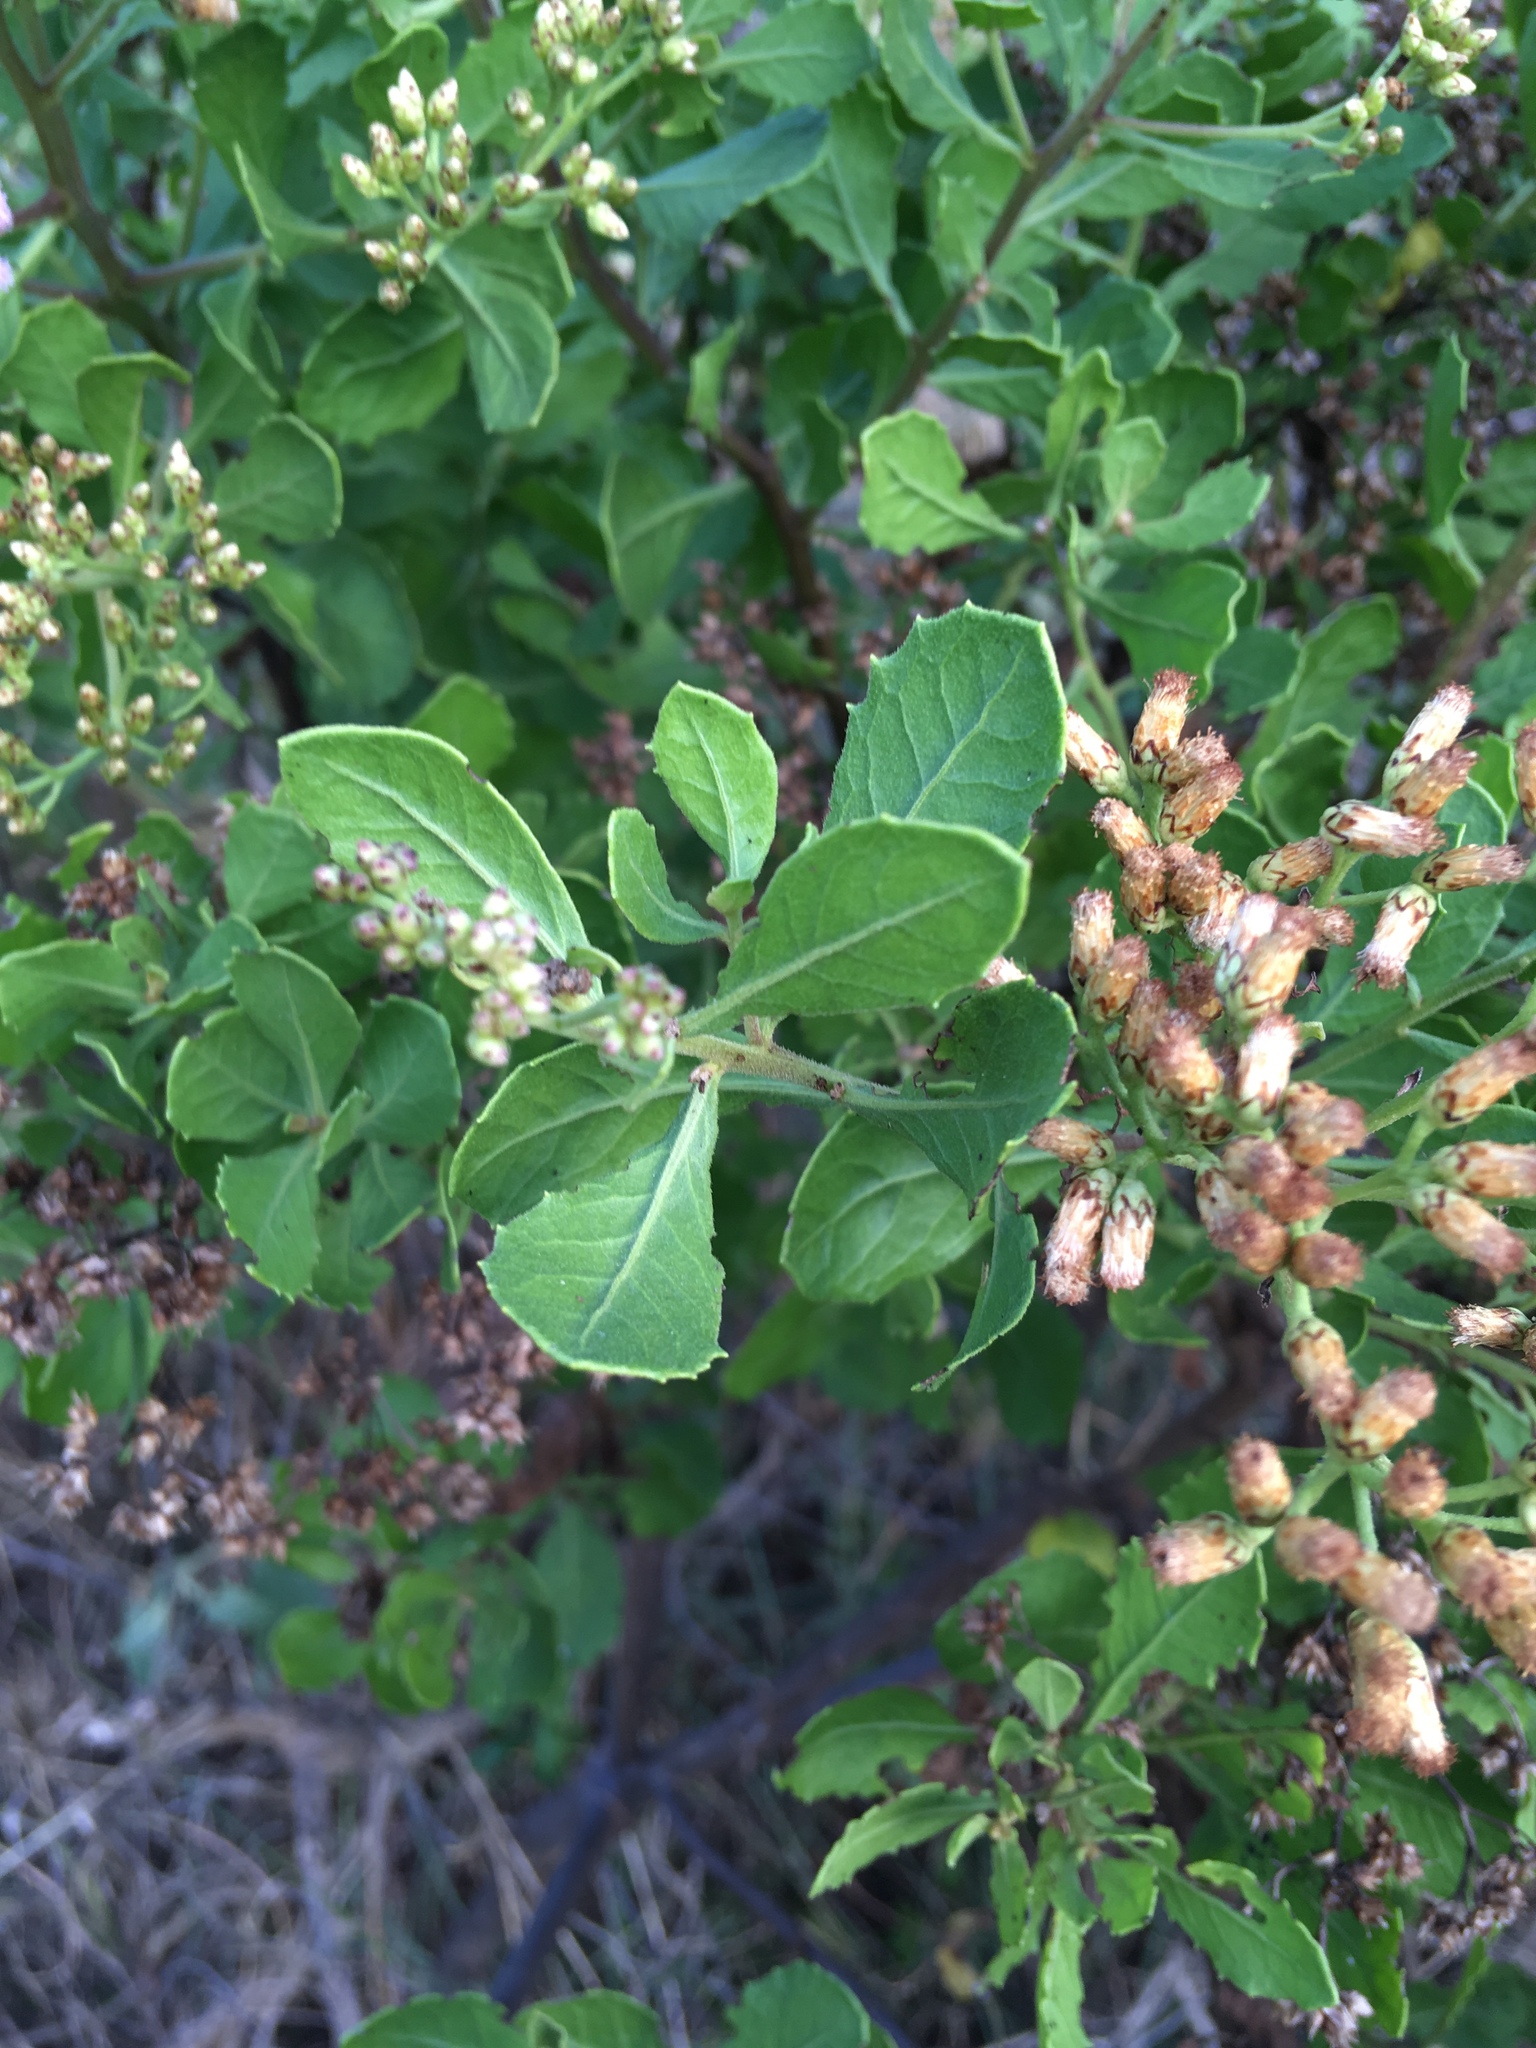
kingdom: Plantae
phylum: Tracheophyta
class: Magnoliopsida
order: Asterales
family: Asteraceae
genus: Pluchea
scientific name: Pluchea indica
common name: Indian fleabane
